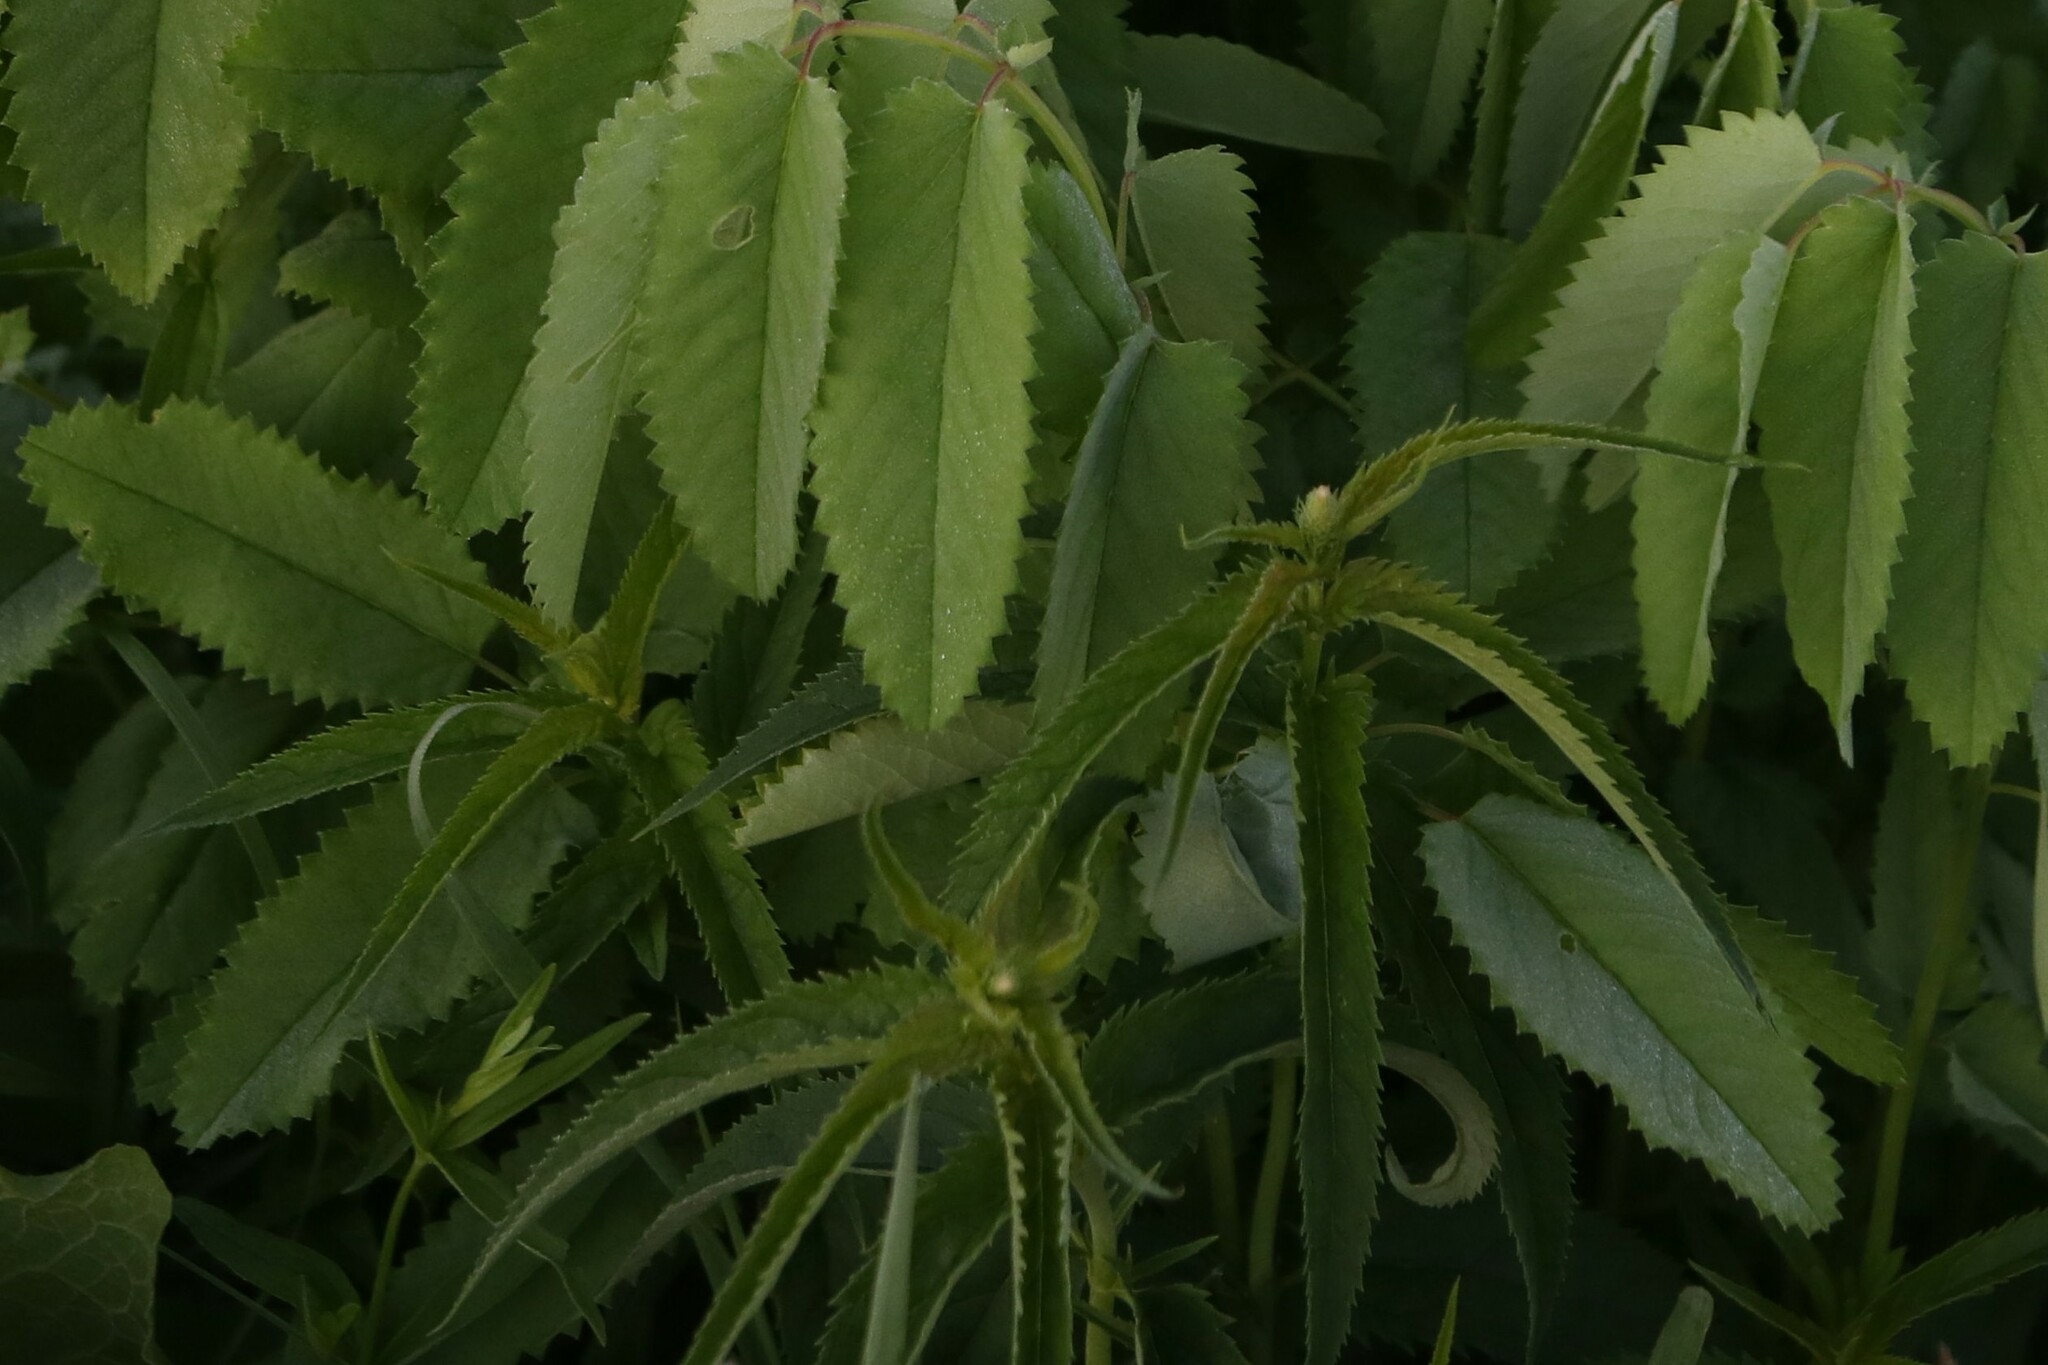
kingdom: Plantae
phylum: Tracheophyta
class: Magnoliopsida
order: Lamiales
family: Plantaginaceae
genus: Veronica
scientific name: Veronica longifolia
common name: Garden speedwell
